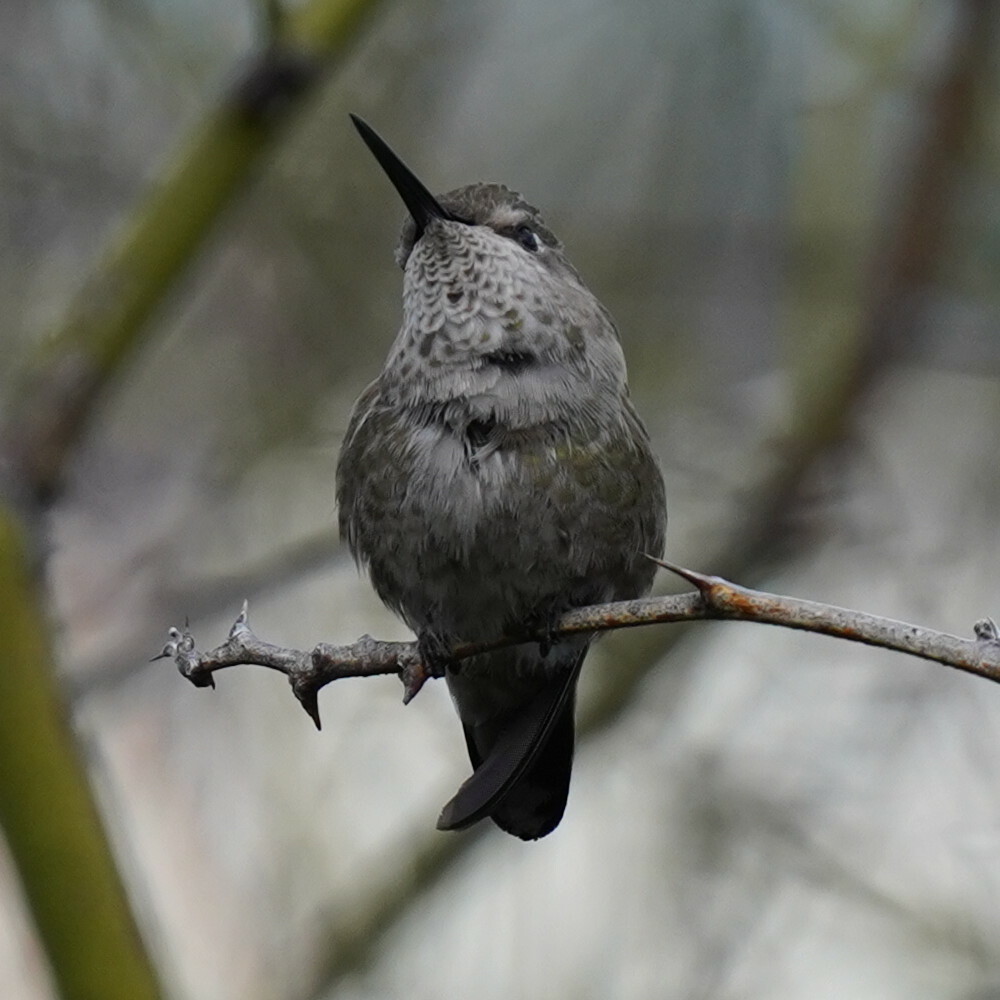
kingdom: Animalia
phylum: Chordata
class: Aves
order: Apodiformes
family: Trochilidae
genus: Calypte
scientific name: Calypte anna
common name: Anna's hummingbird
